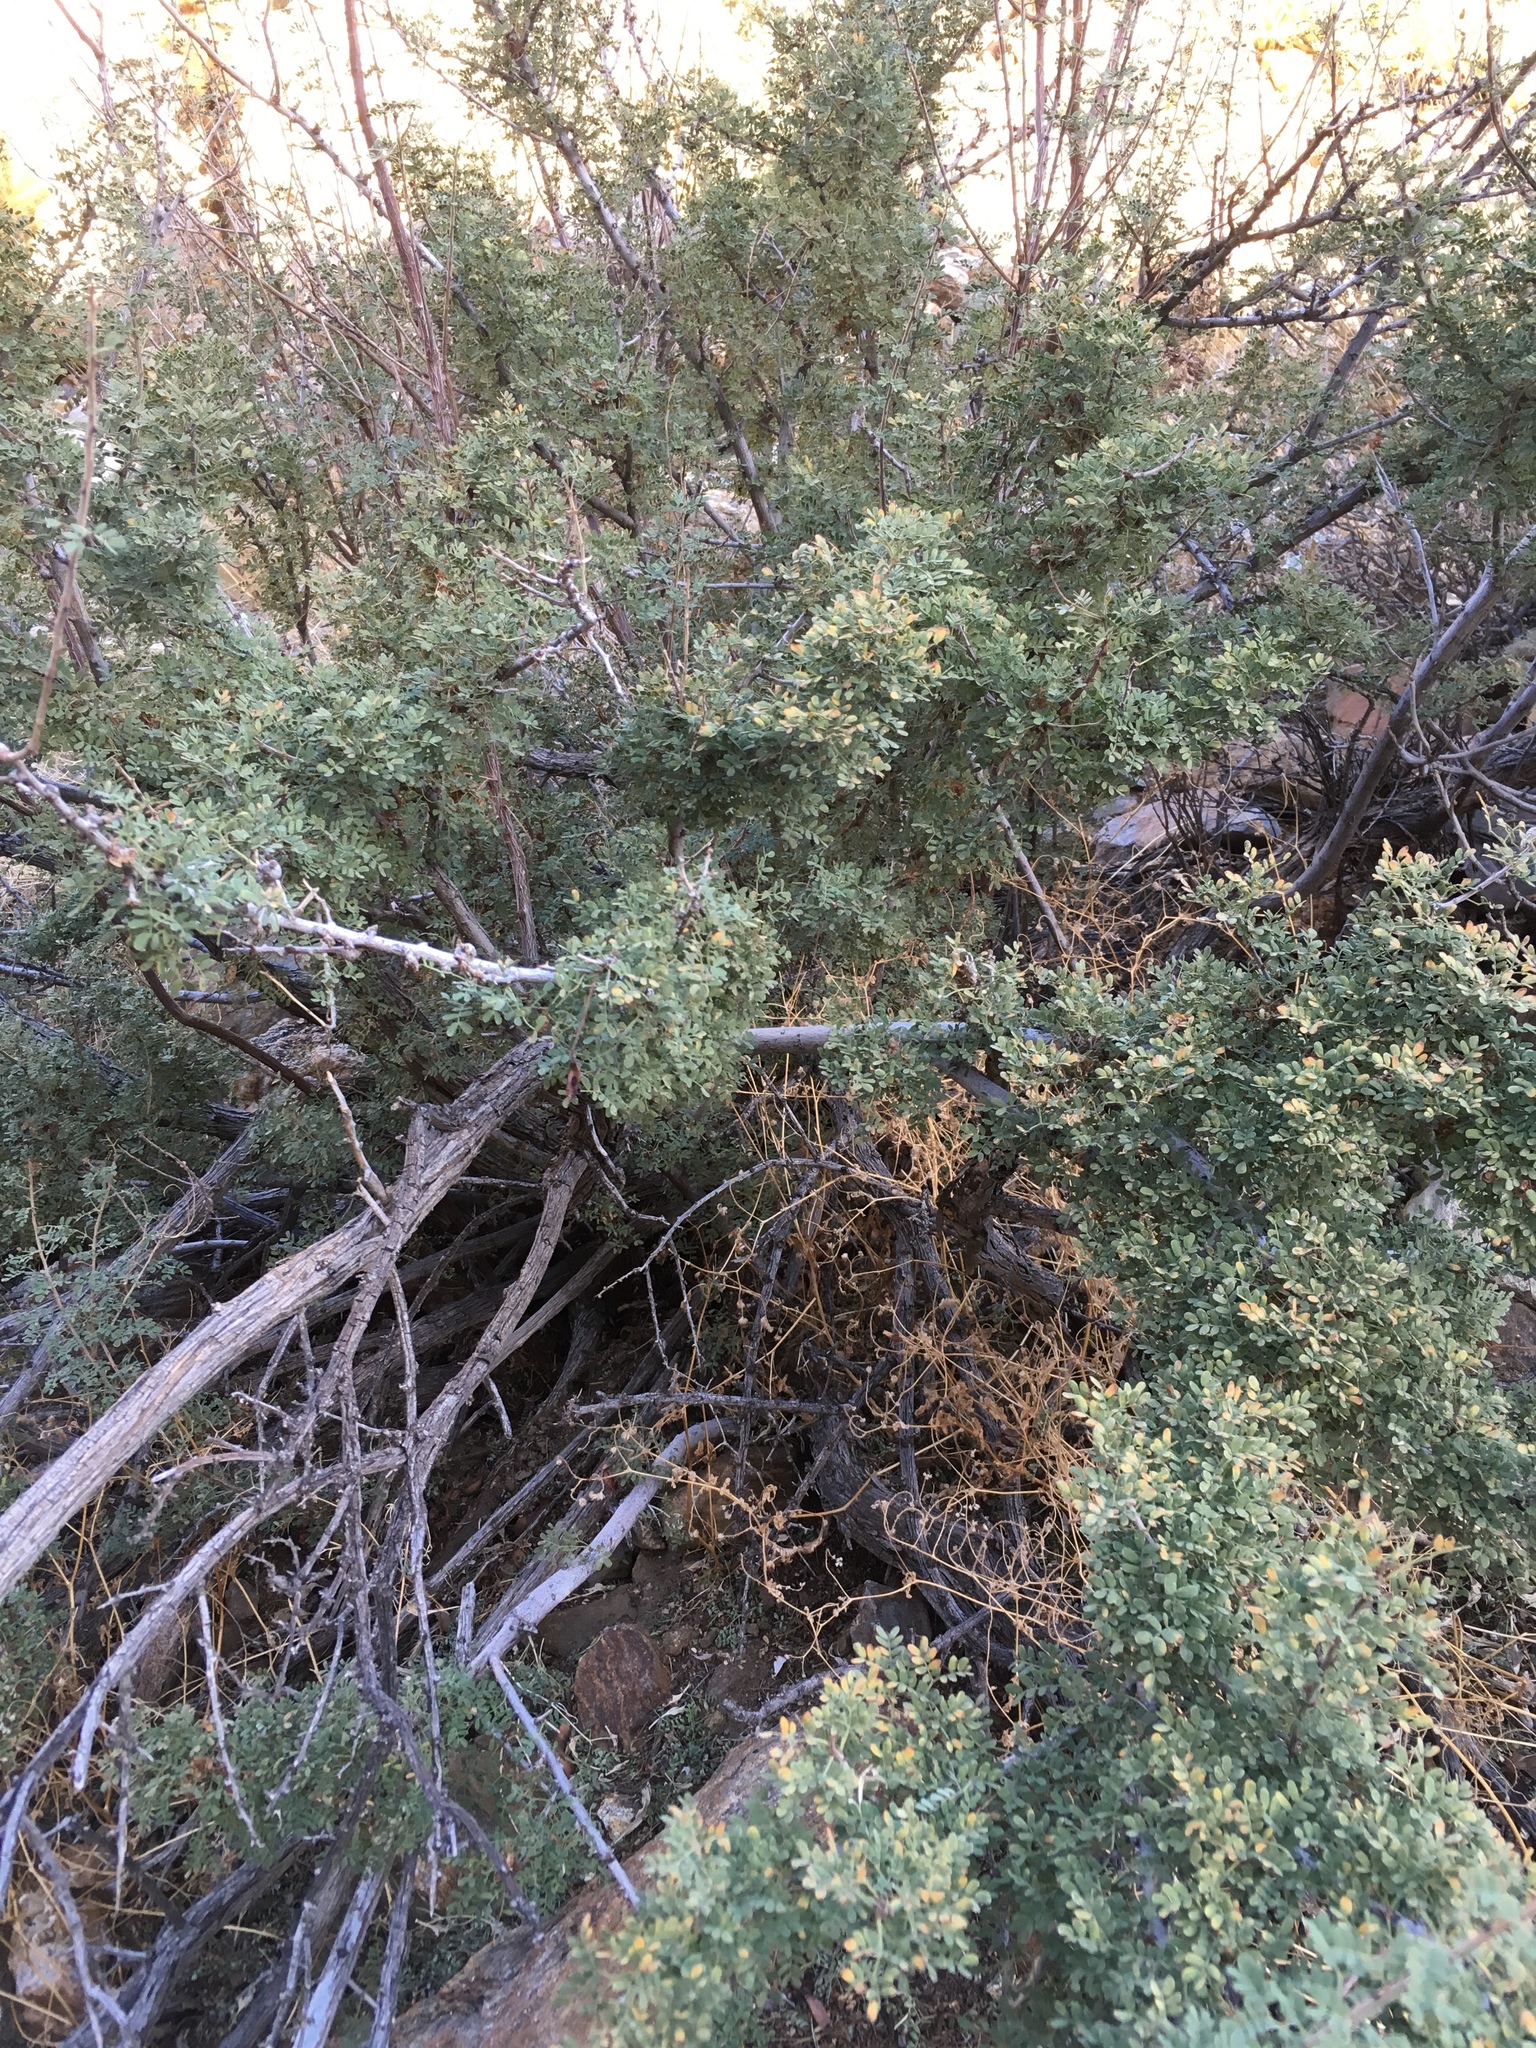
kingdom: Plantae
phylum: Tracheophyta
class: Magnoliopsida
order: Fabales
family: Fabaceae
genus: Senegalia
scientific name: Senegalia greggii
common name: Texas-mimosa
